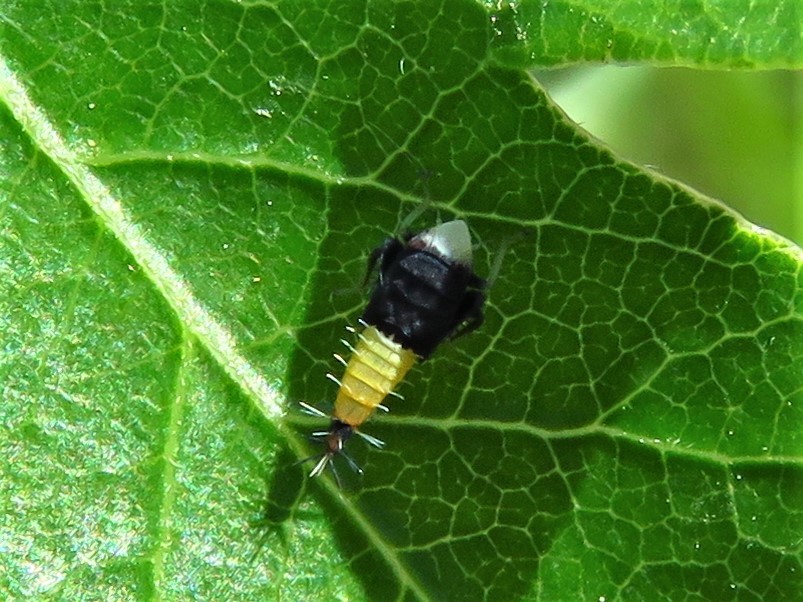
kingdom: Animalia
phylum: Arthropoda
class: Insecta
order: Hemiptera
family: Cicadellidae
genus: Scaphoideus
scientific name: Scaphoideus incisus
